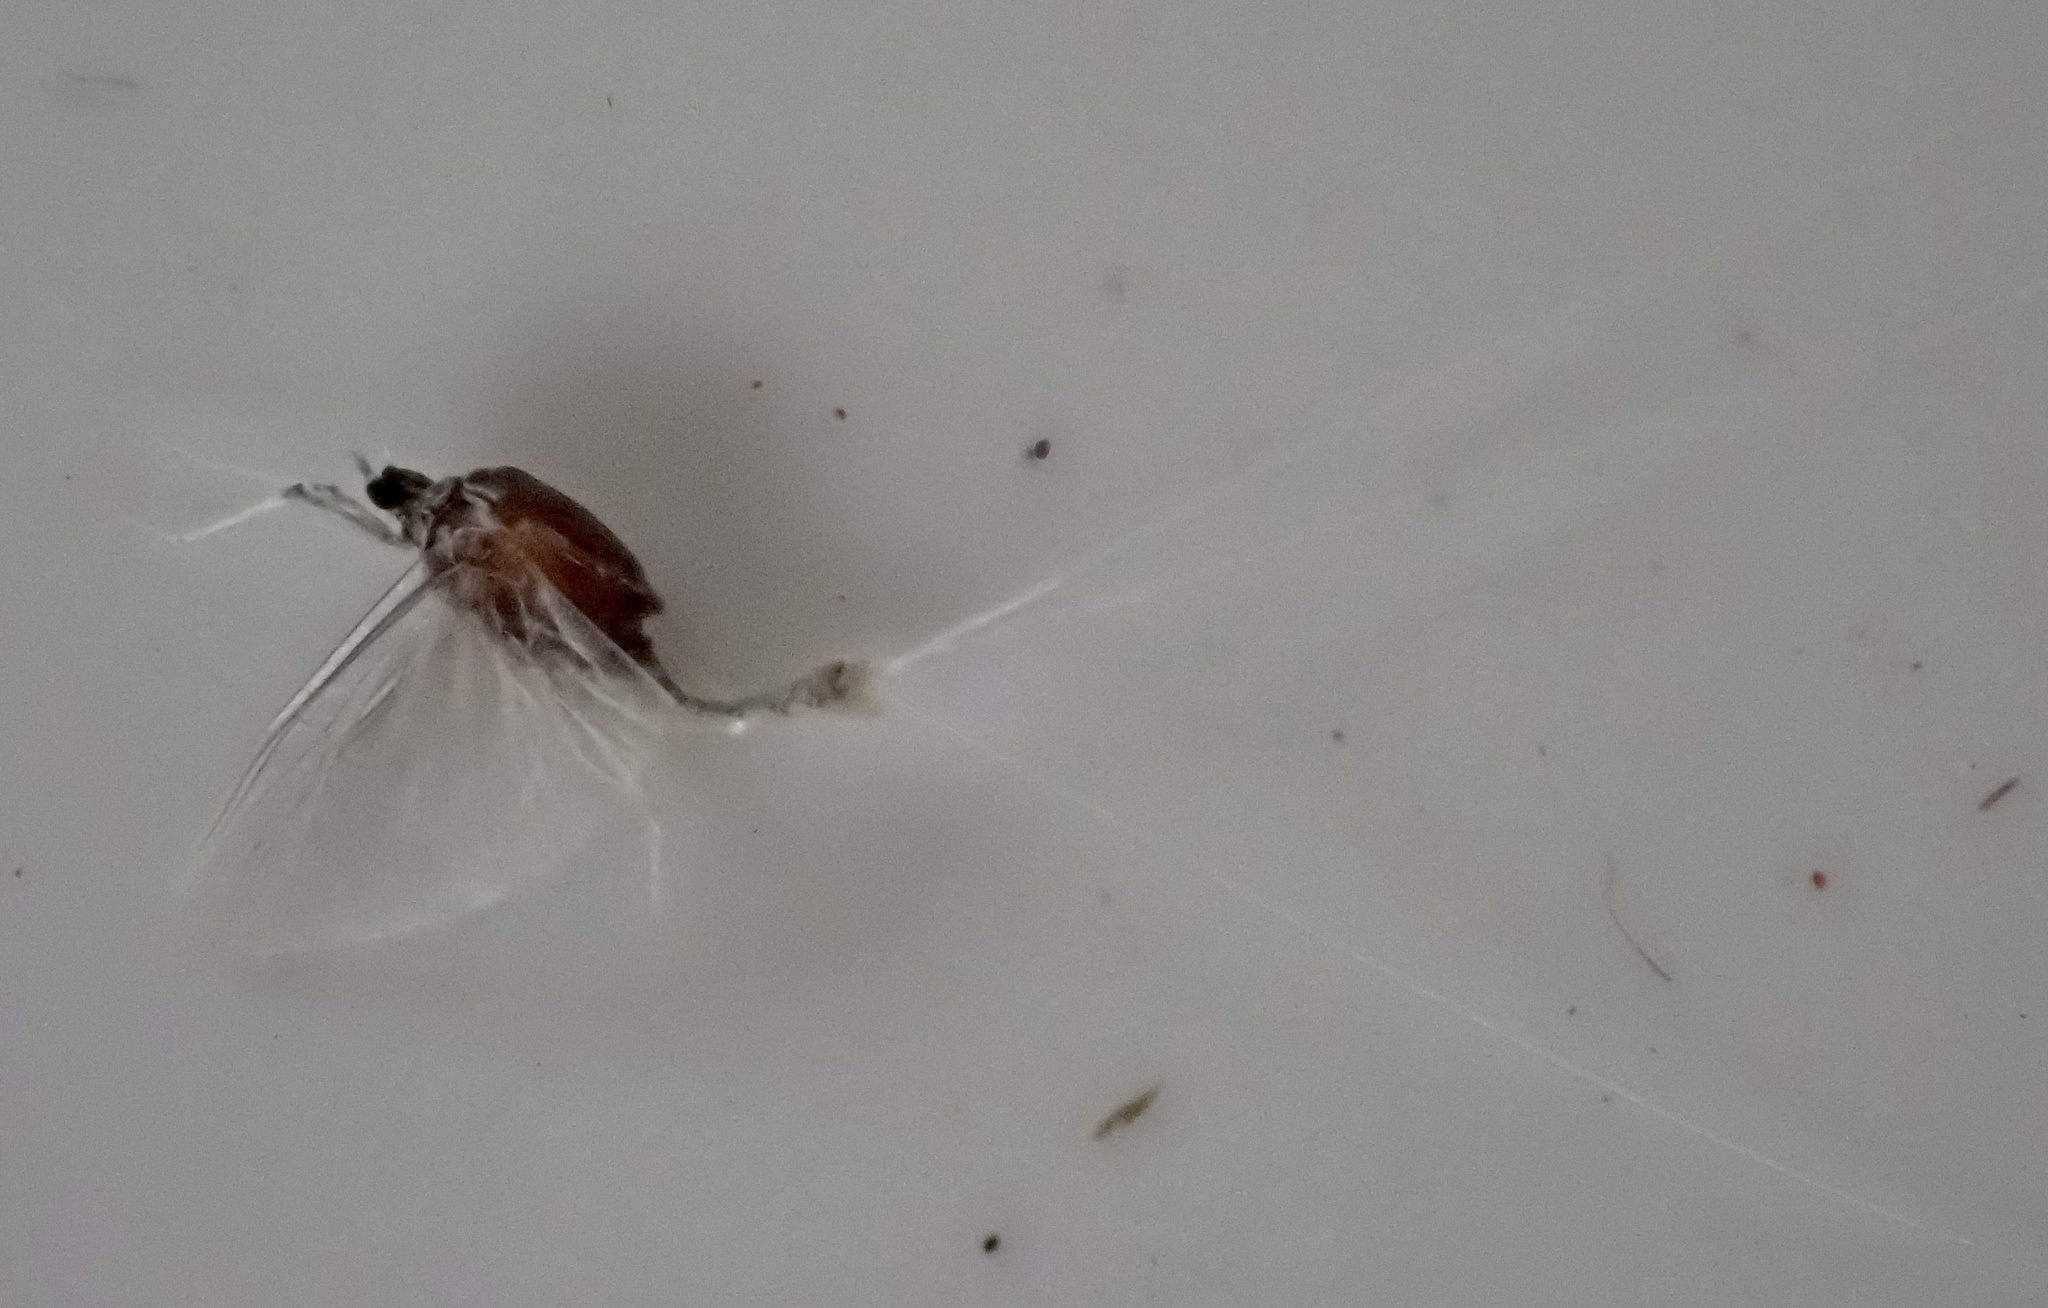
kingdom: Animalia
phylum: Arthropoda
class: Insecta
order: Ephemeroptera
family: Caenidae
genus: Caenis
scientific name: Caenis robusta
